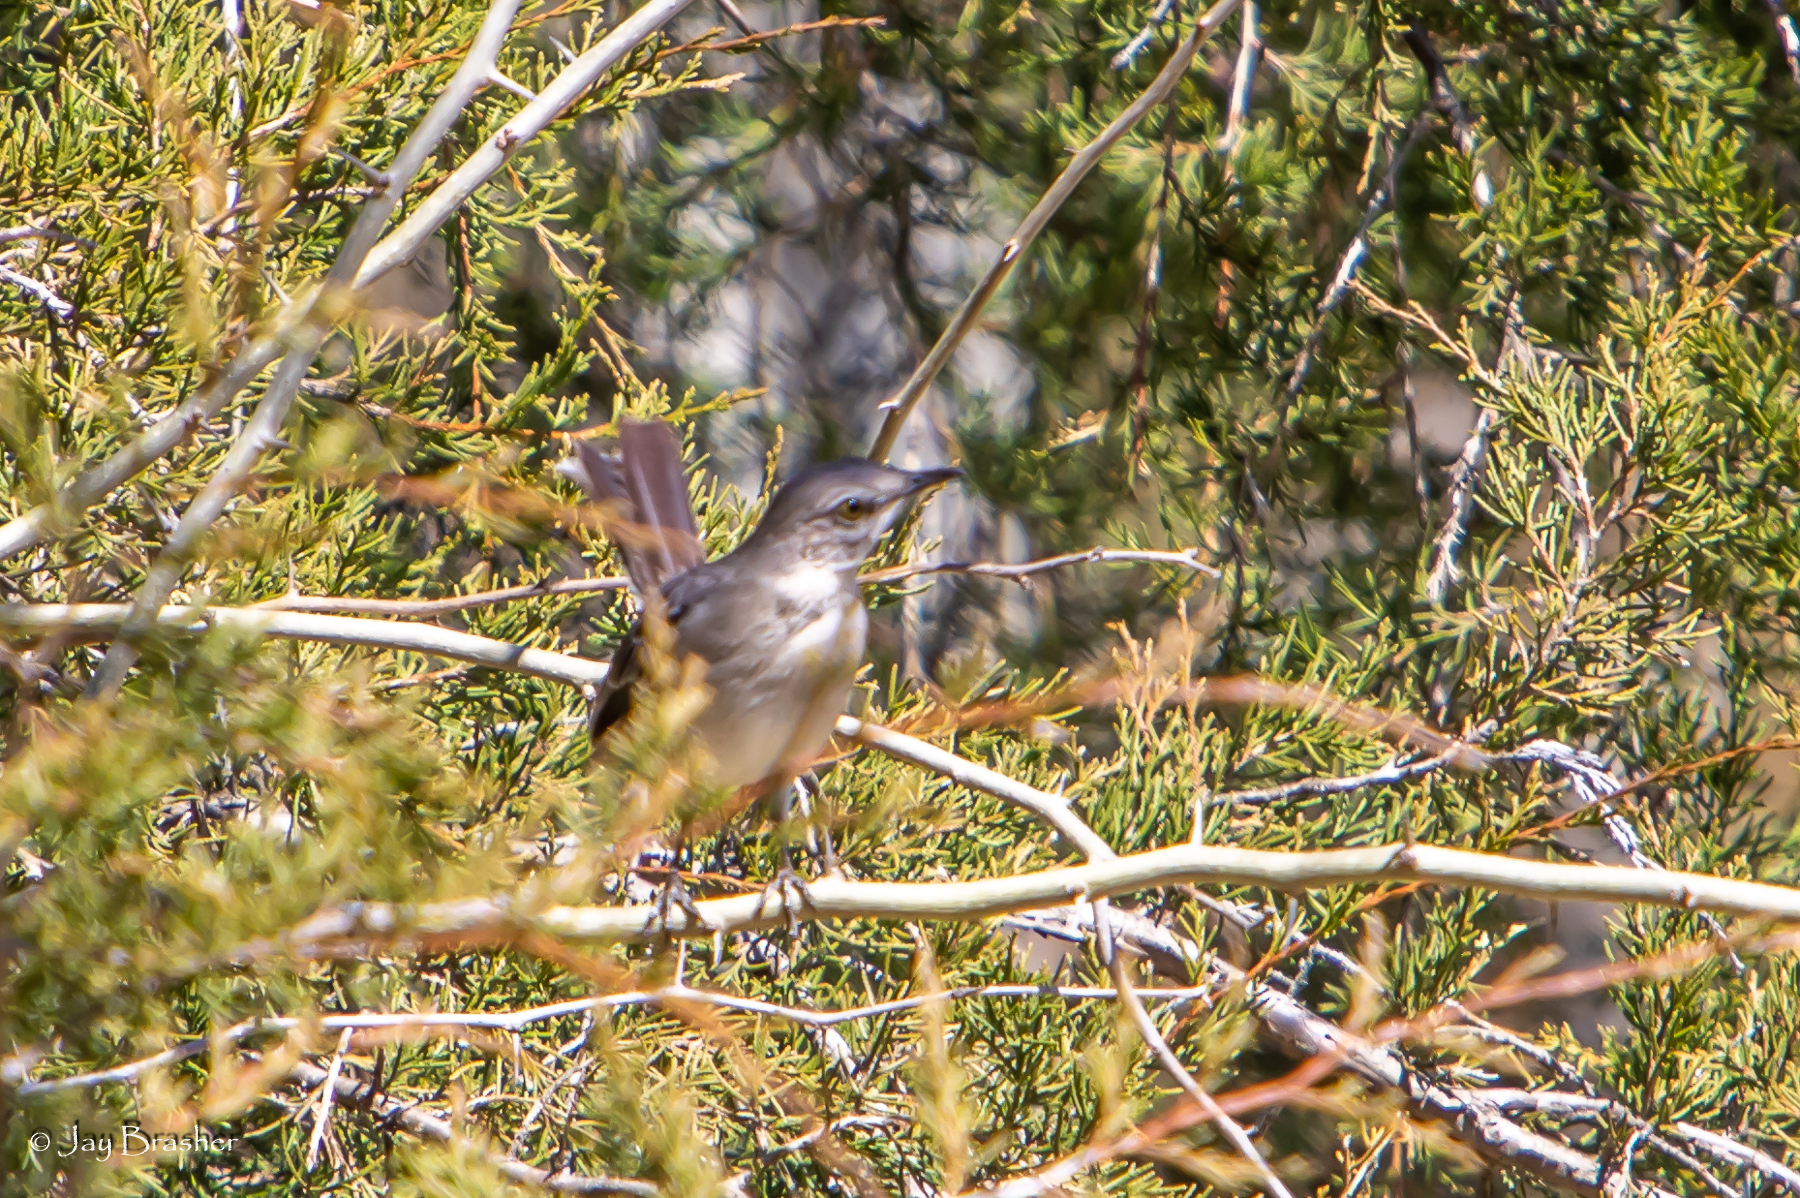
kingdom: Animalia
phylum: Chordata
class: Aves
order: Passeriformes
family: Mimidae
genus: Mimus
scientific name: Mimus polyglottos
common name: Northern mockingbird
